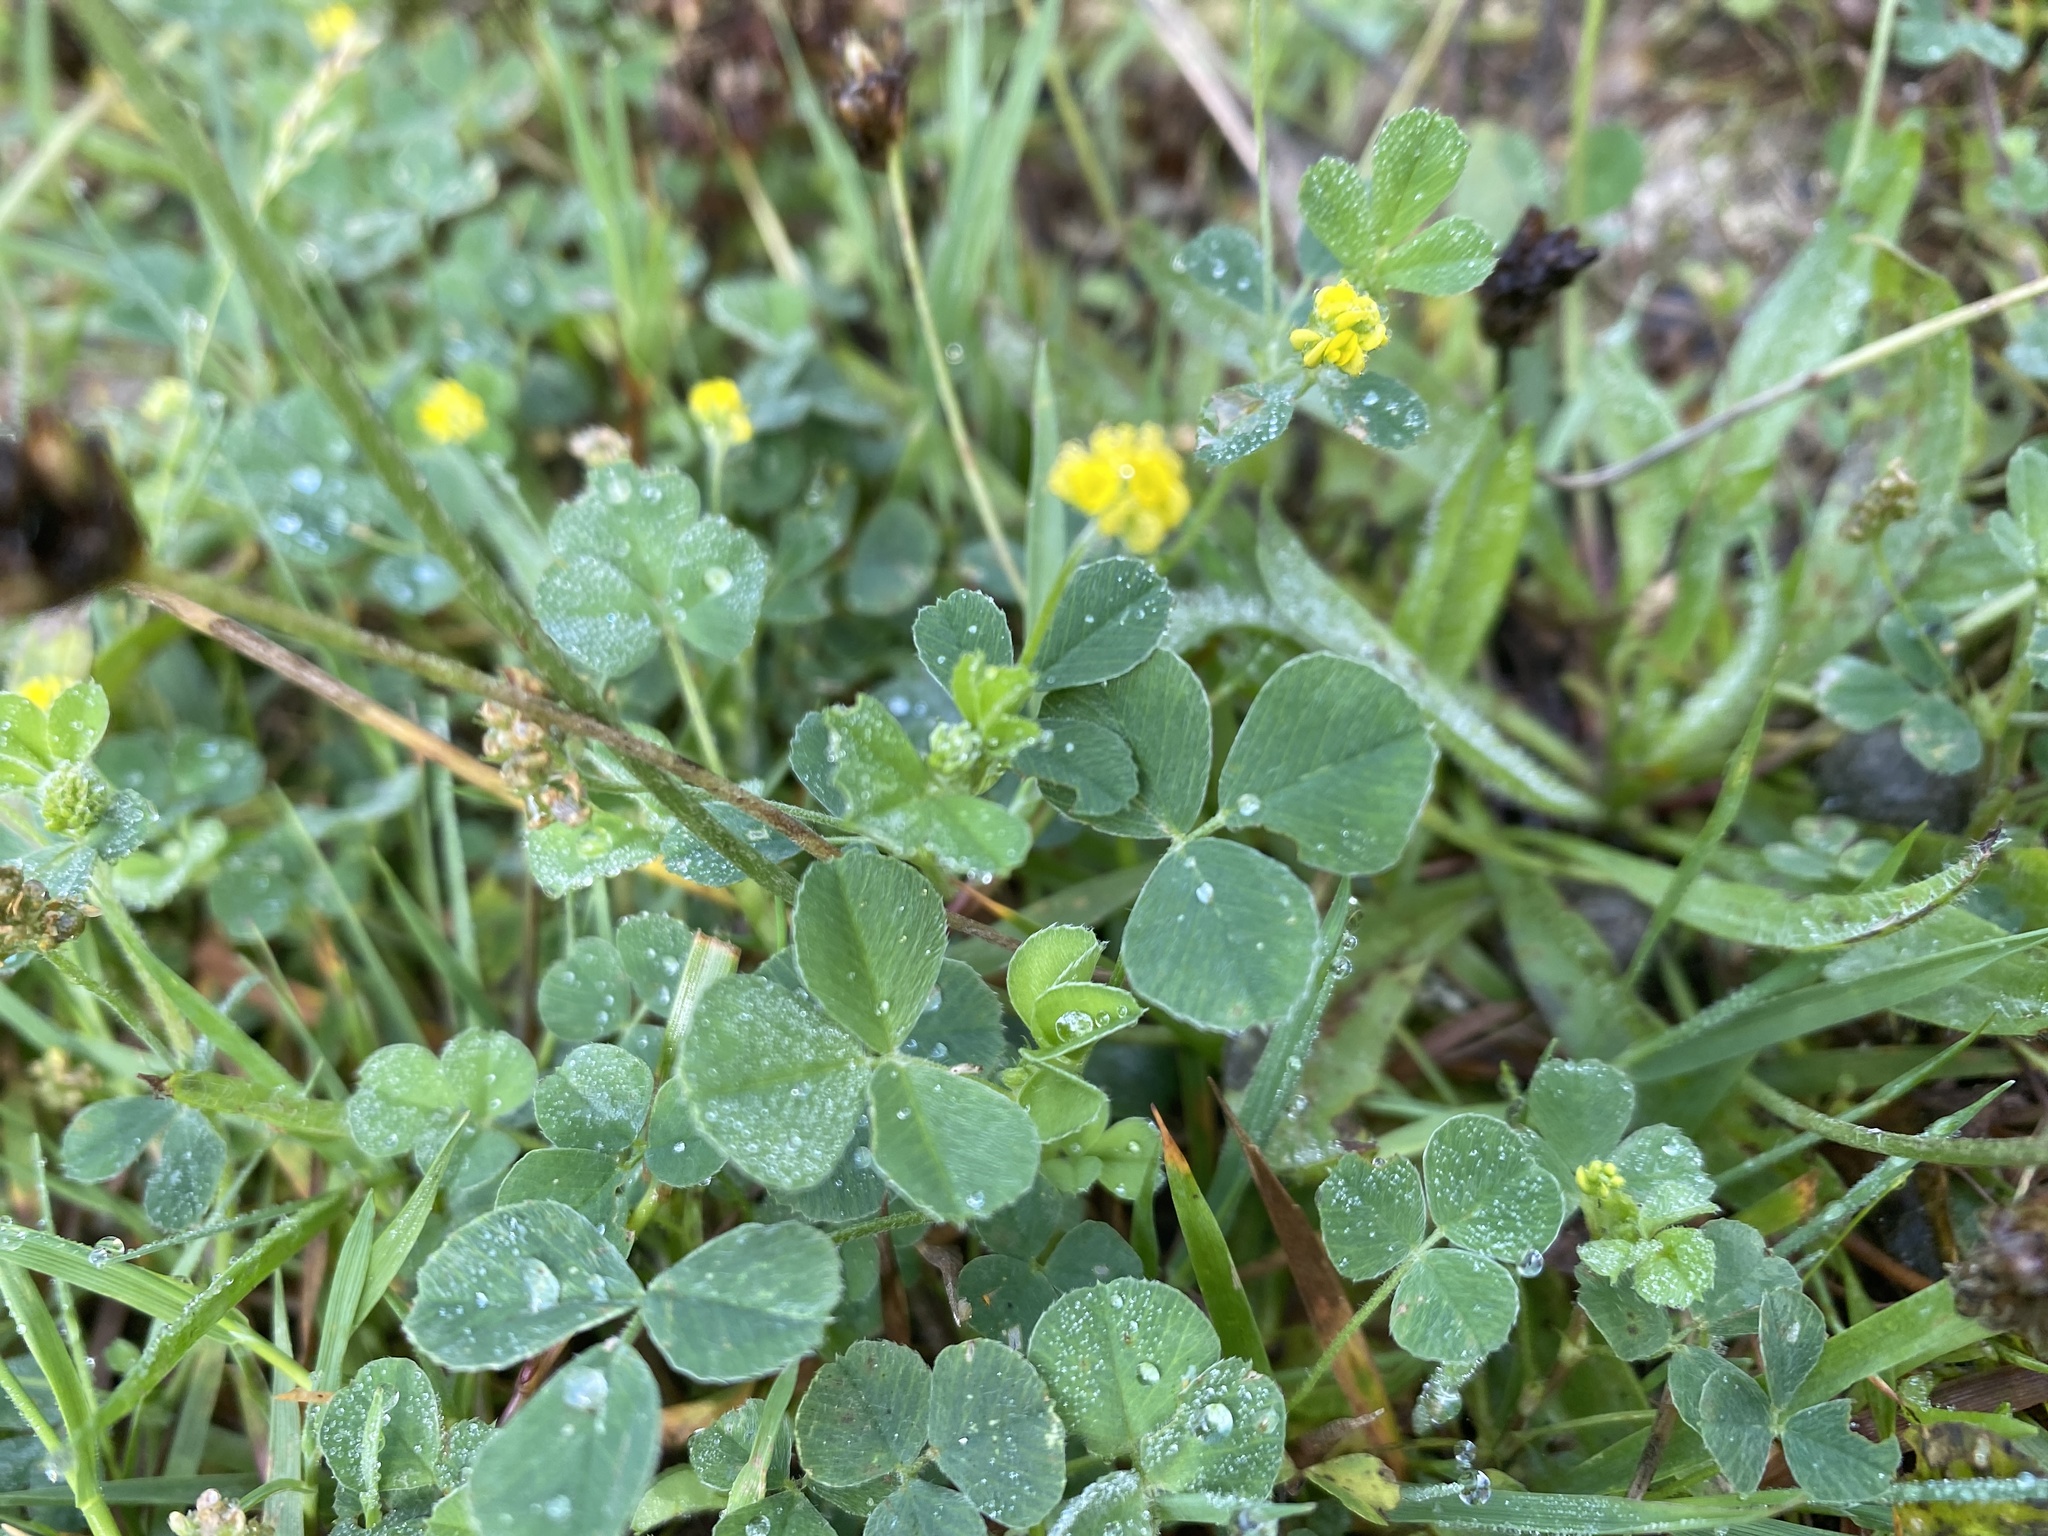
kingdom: Plantae
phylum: Tracheophyta
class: Magnoliopsida
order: Fabales
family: Fabaceae
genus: Medicago
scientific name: Medicago lupulina
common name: Black medick
